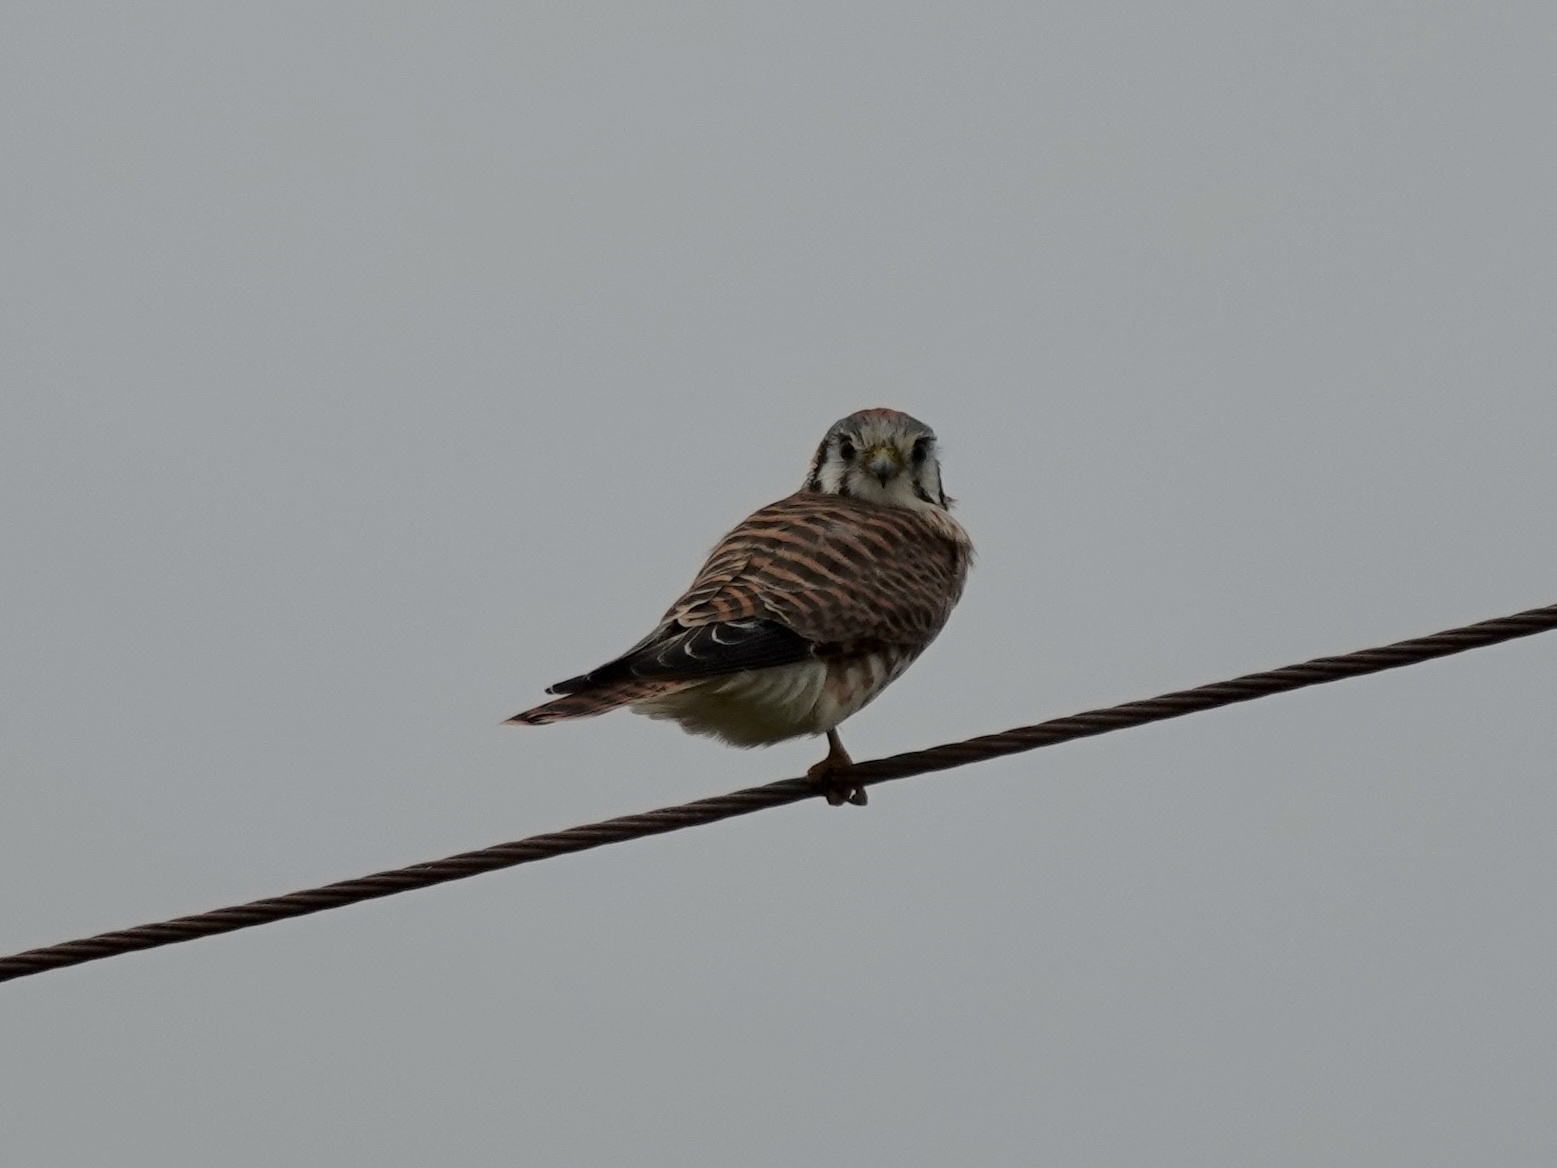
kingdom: Animalia
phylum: Chordata
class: Aves
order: Falconiformes
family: Falconidae
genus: Falco
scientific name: Falco sparverius
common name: American kestrel
